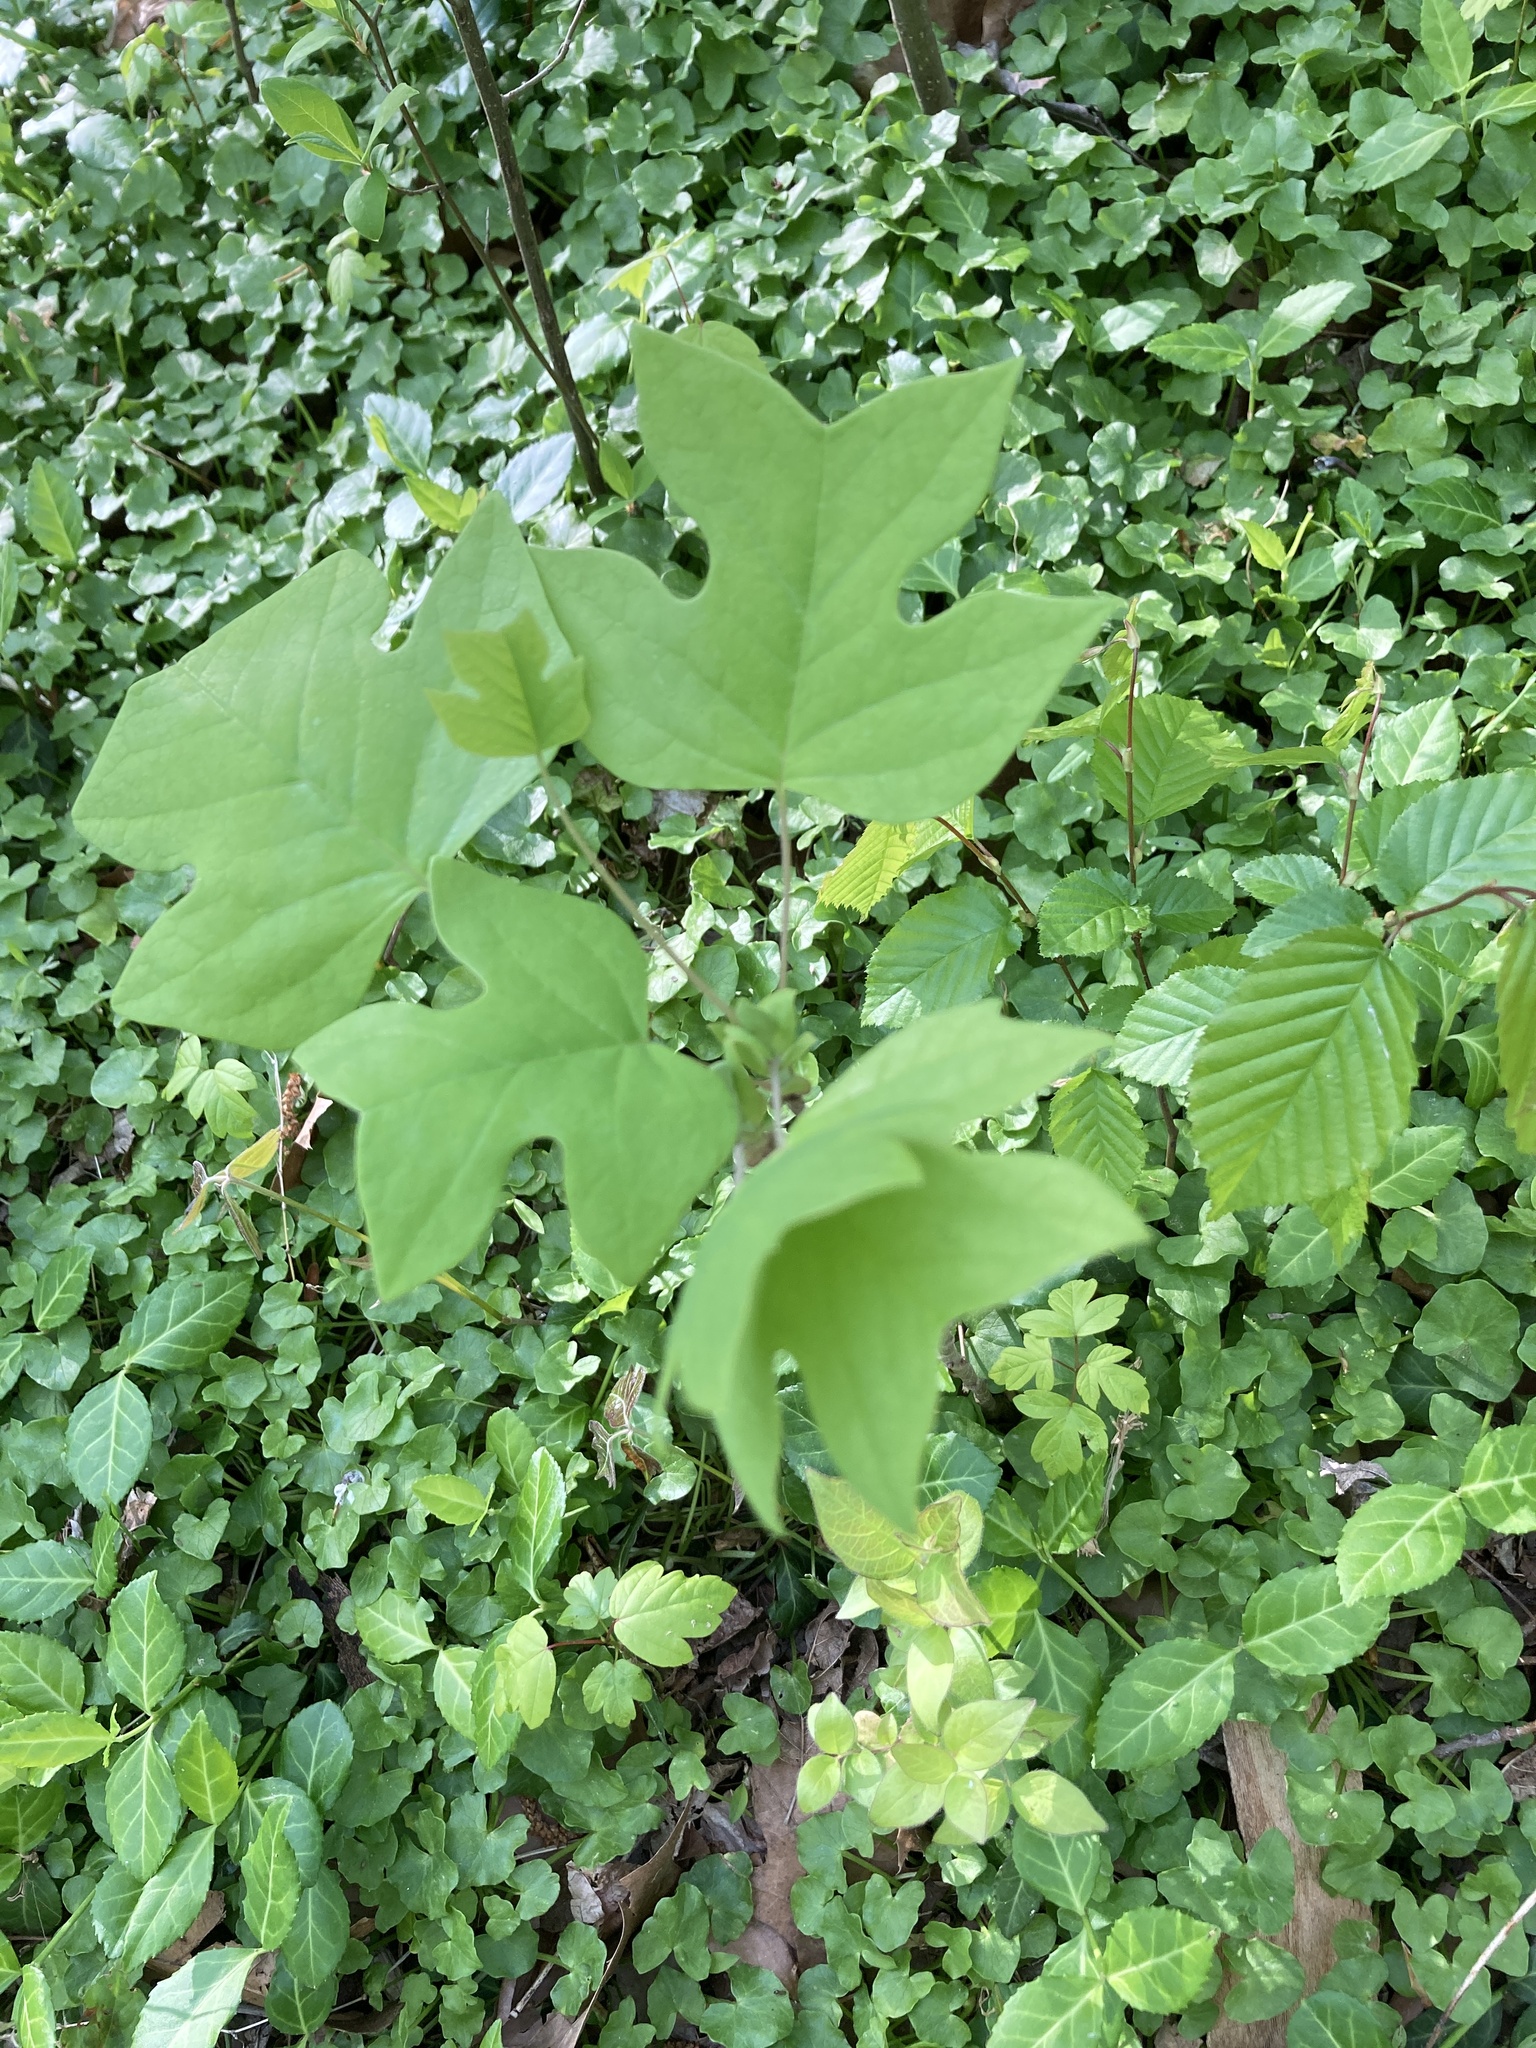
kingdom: Plantae
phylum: Tracheophyta
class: Magnoliopsida
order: Magnoliales
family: Magnoliaceae
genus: Liriodendron
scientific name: Liriodendron tulipifera
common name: Tulip tree
